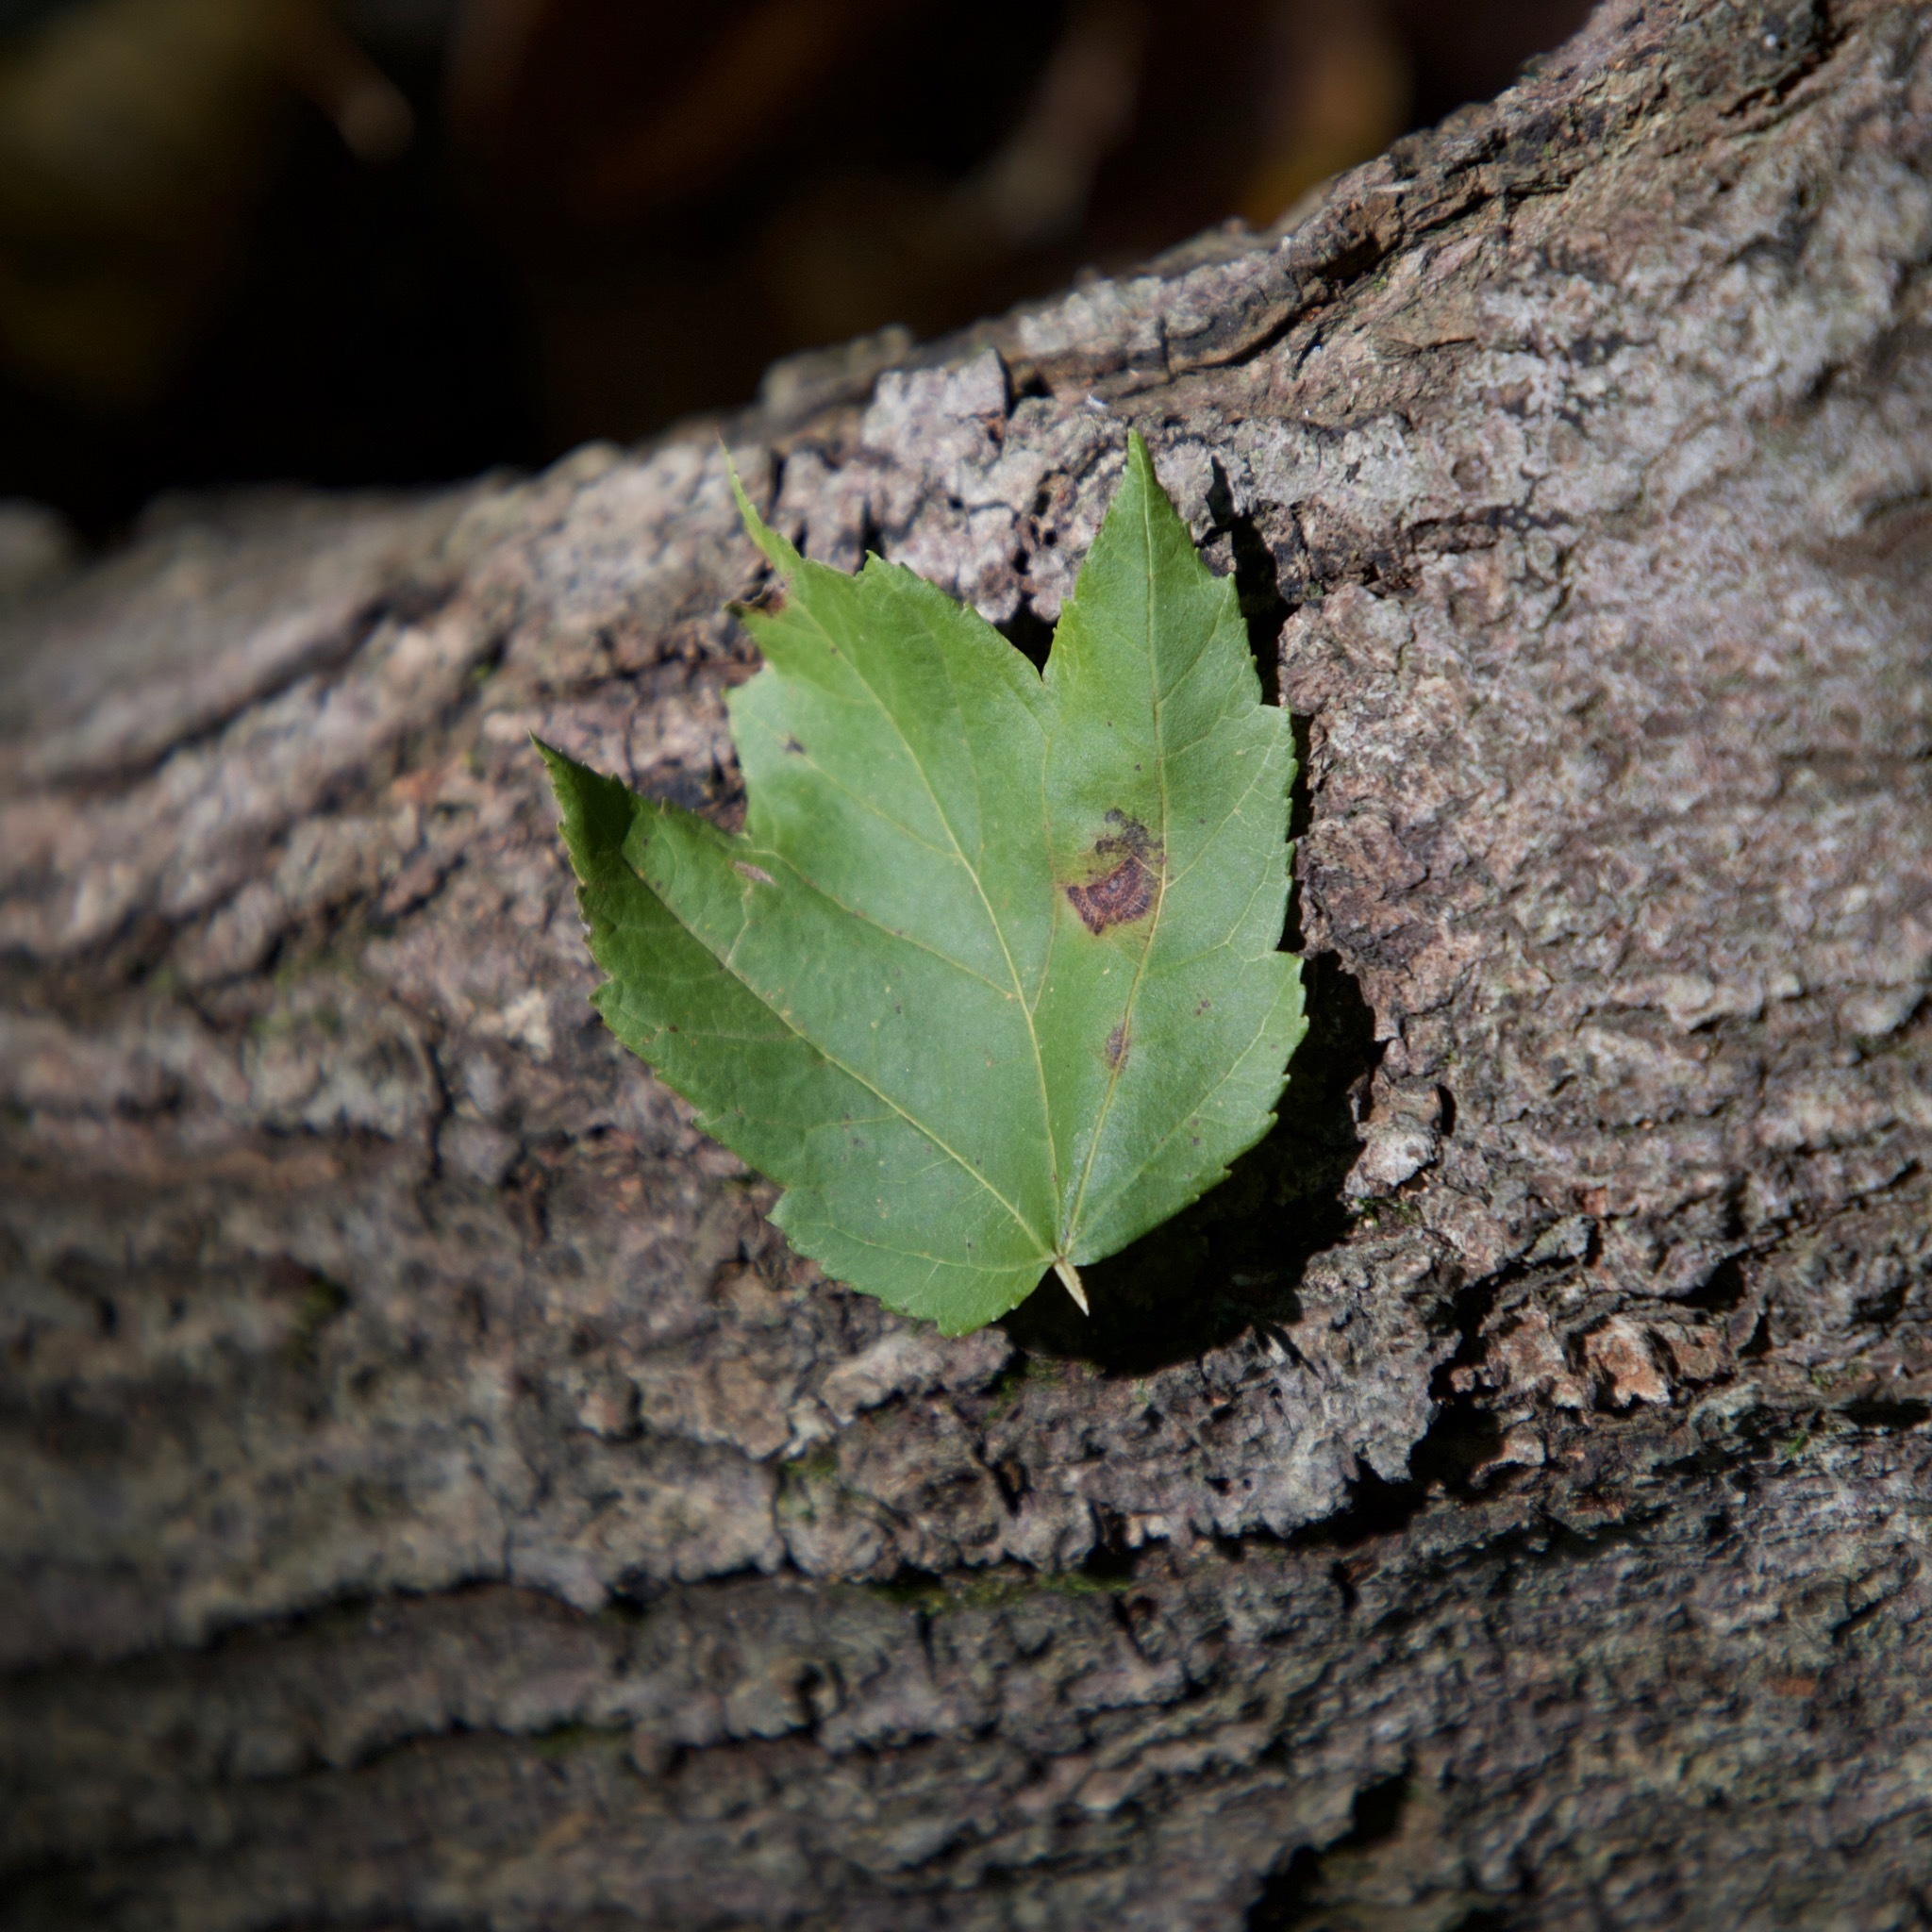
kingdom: Plantae
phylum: Tracheophyta
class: Magnoliopsida
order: Sapindales
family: Sapindaceae
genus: Acer
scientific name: Acer rubrum
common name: Red maple
